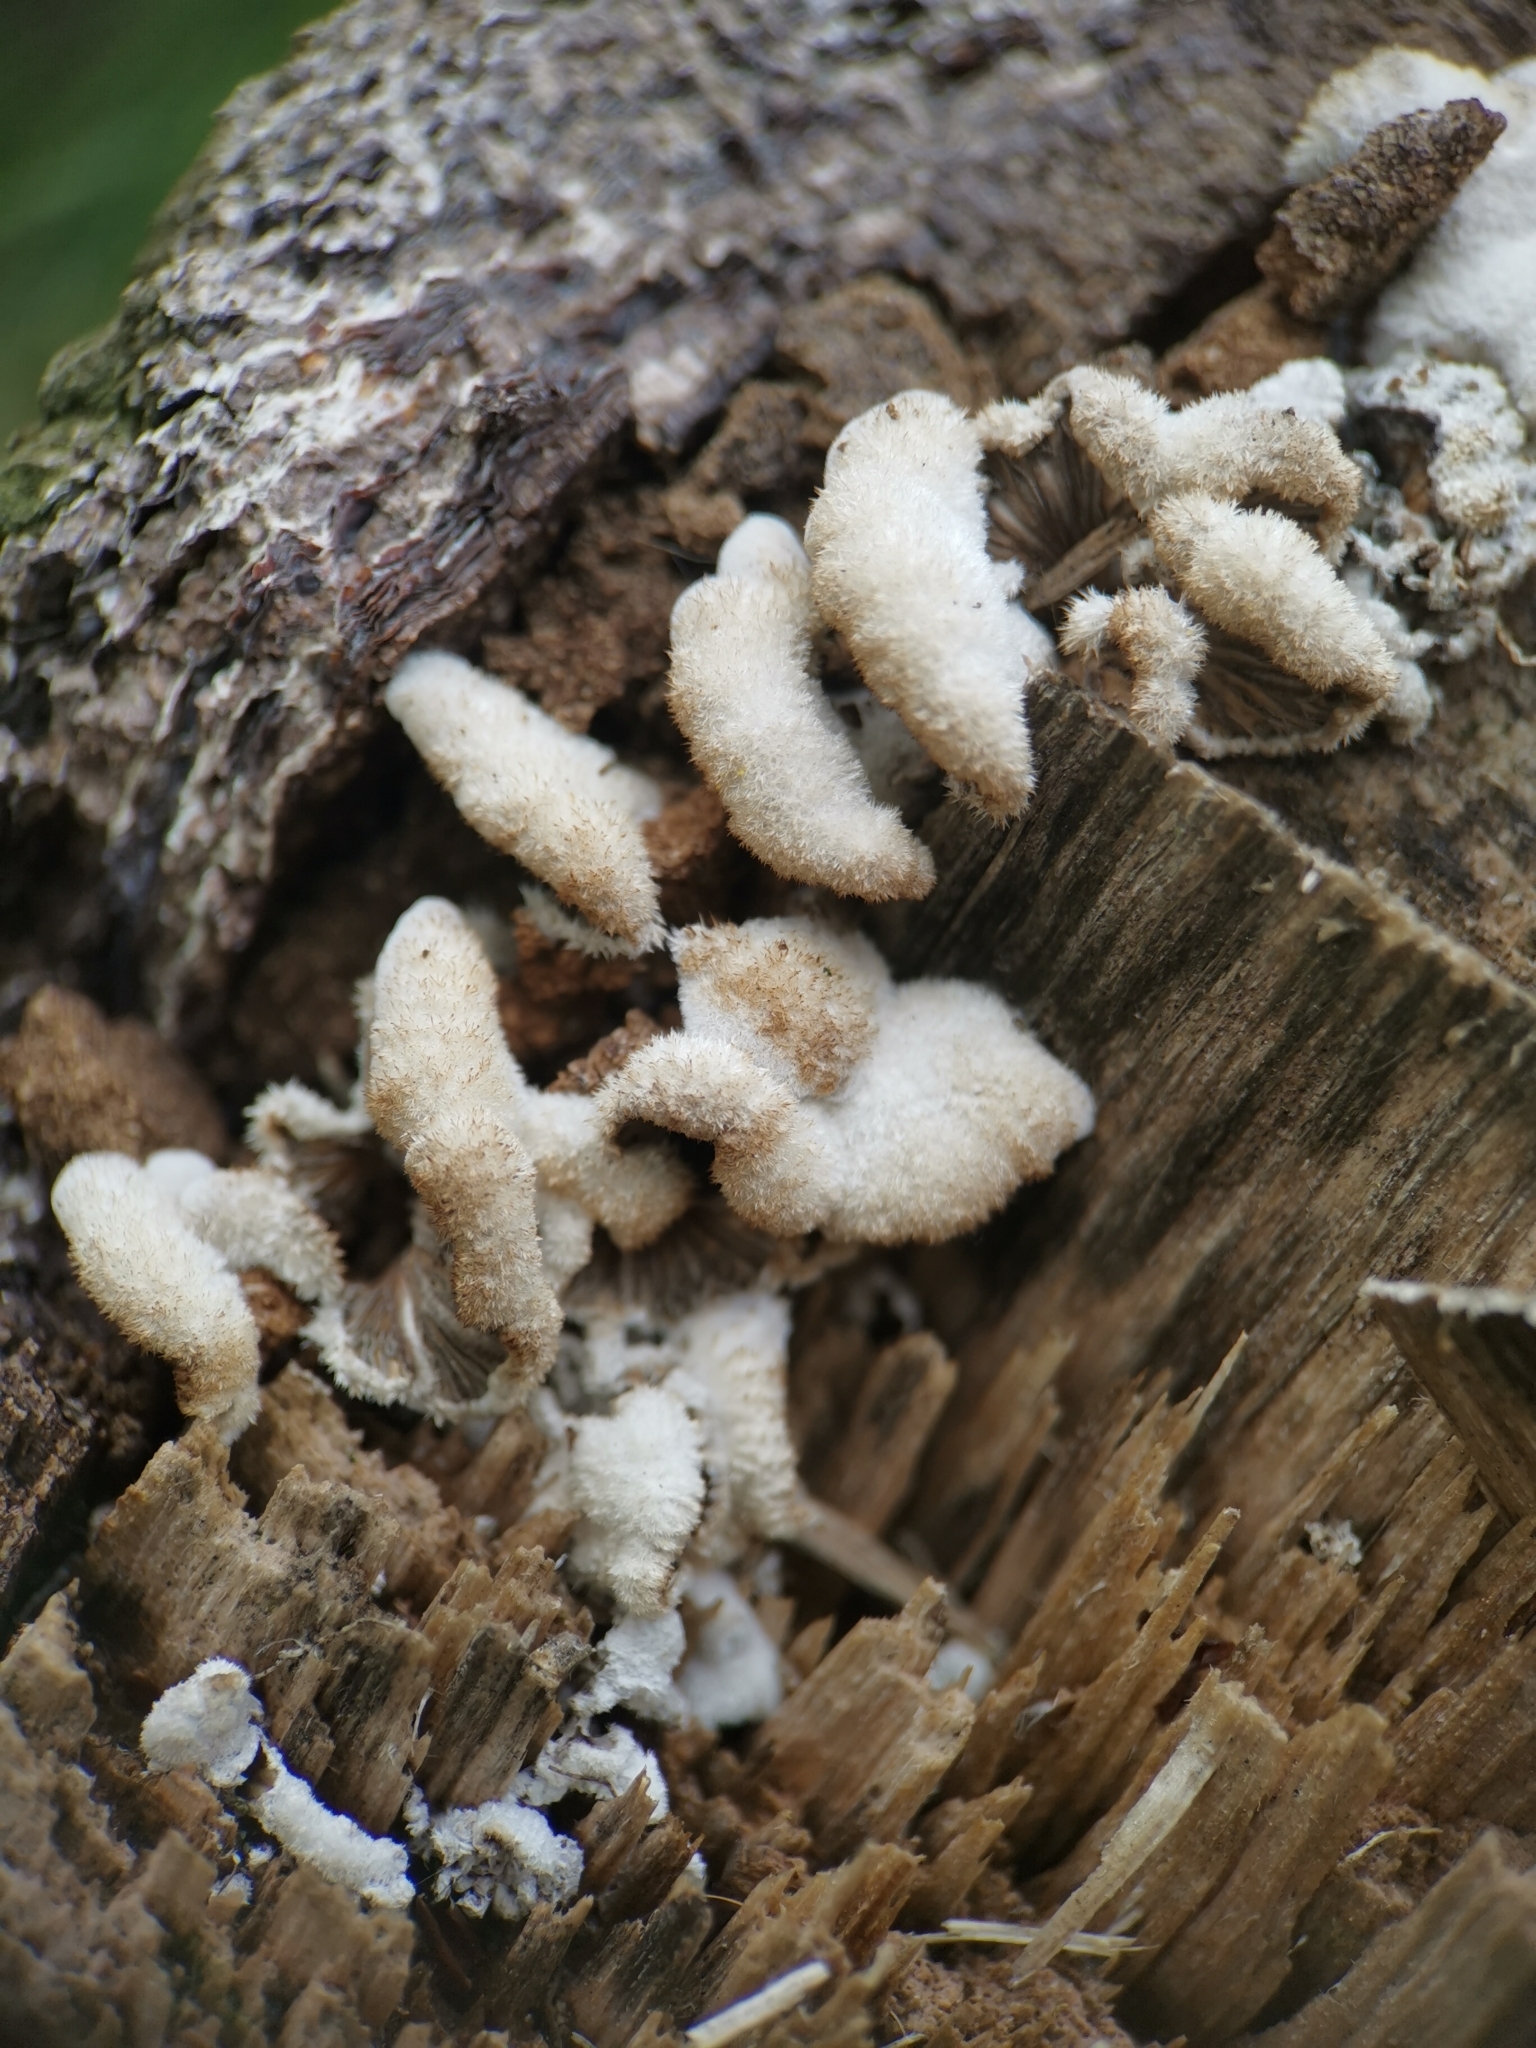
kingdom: Fungi
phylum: Basidiomycota
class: Agaricomycetes
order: Agaricales
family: Schizophyllaceae
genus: Schizophyllum
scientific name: Schizophyllum commune
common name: Common porecrust
